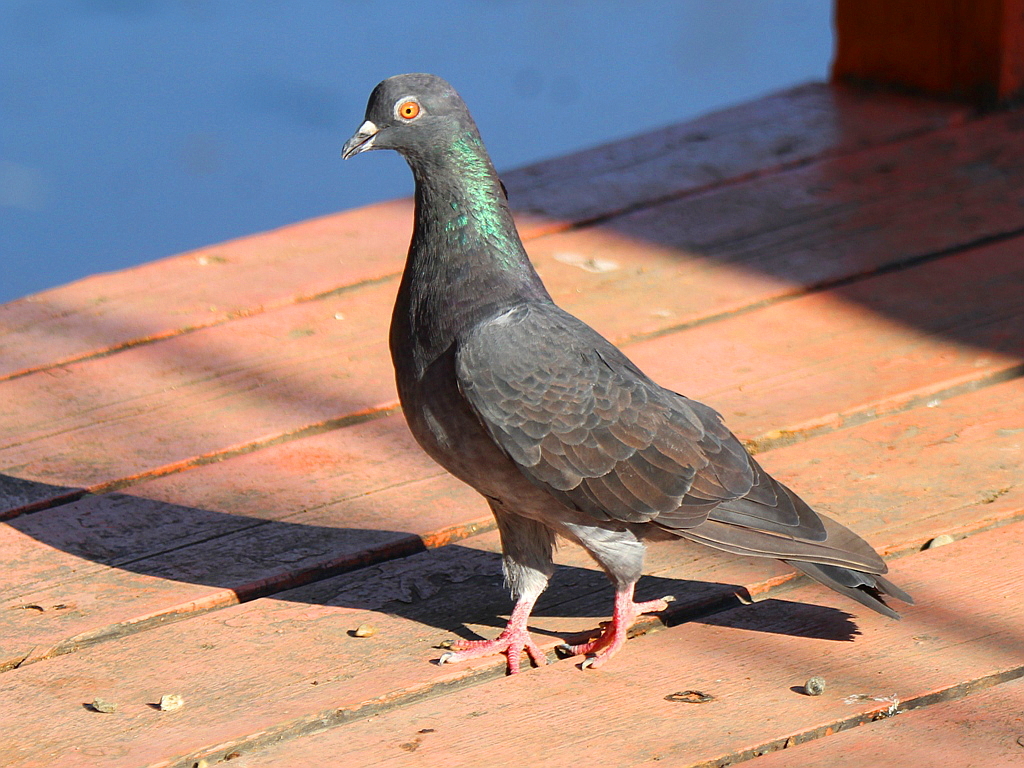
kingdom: Animalia
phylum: Chordata
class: Aves
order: Columbiformes
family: Columbidae
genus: Columba
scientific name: Columba livia
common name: Rock pigeon
